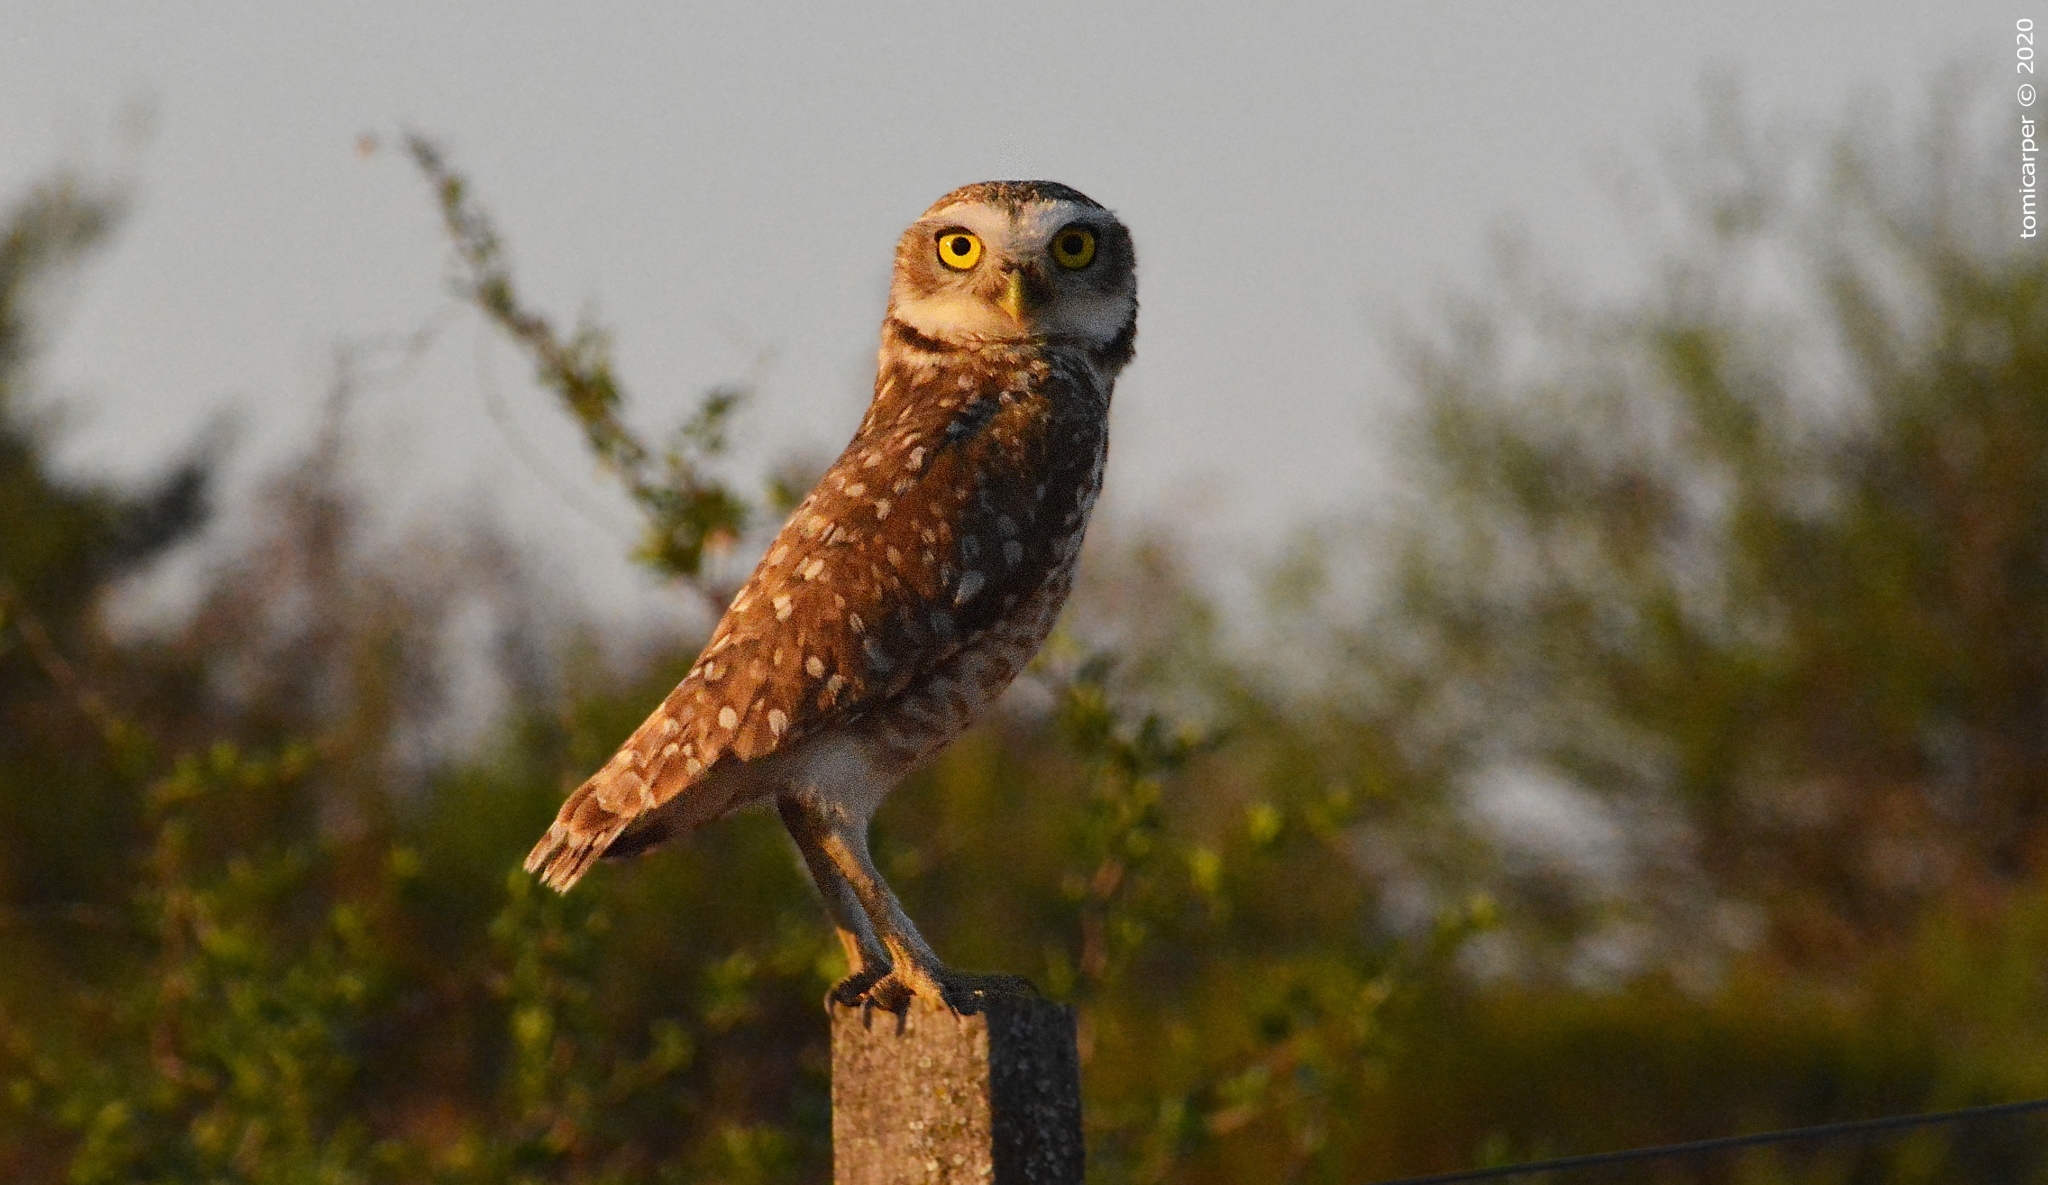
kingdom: Animalia
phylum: Chordata
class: Aves
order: Strigiformes
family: Strigidae
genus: Athene
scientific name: Athene cunicularia
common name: Burrowing owl
